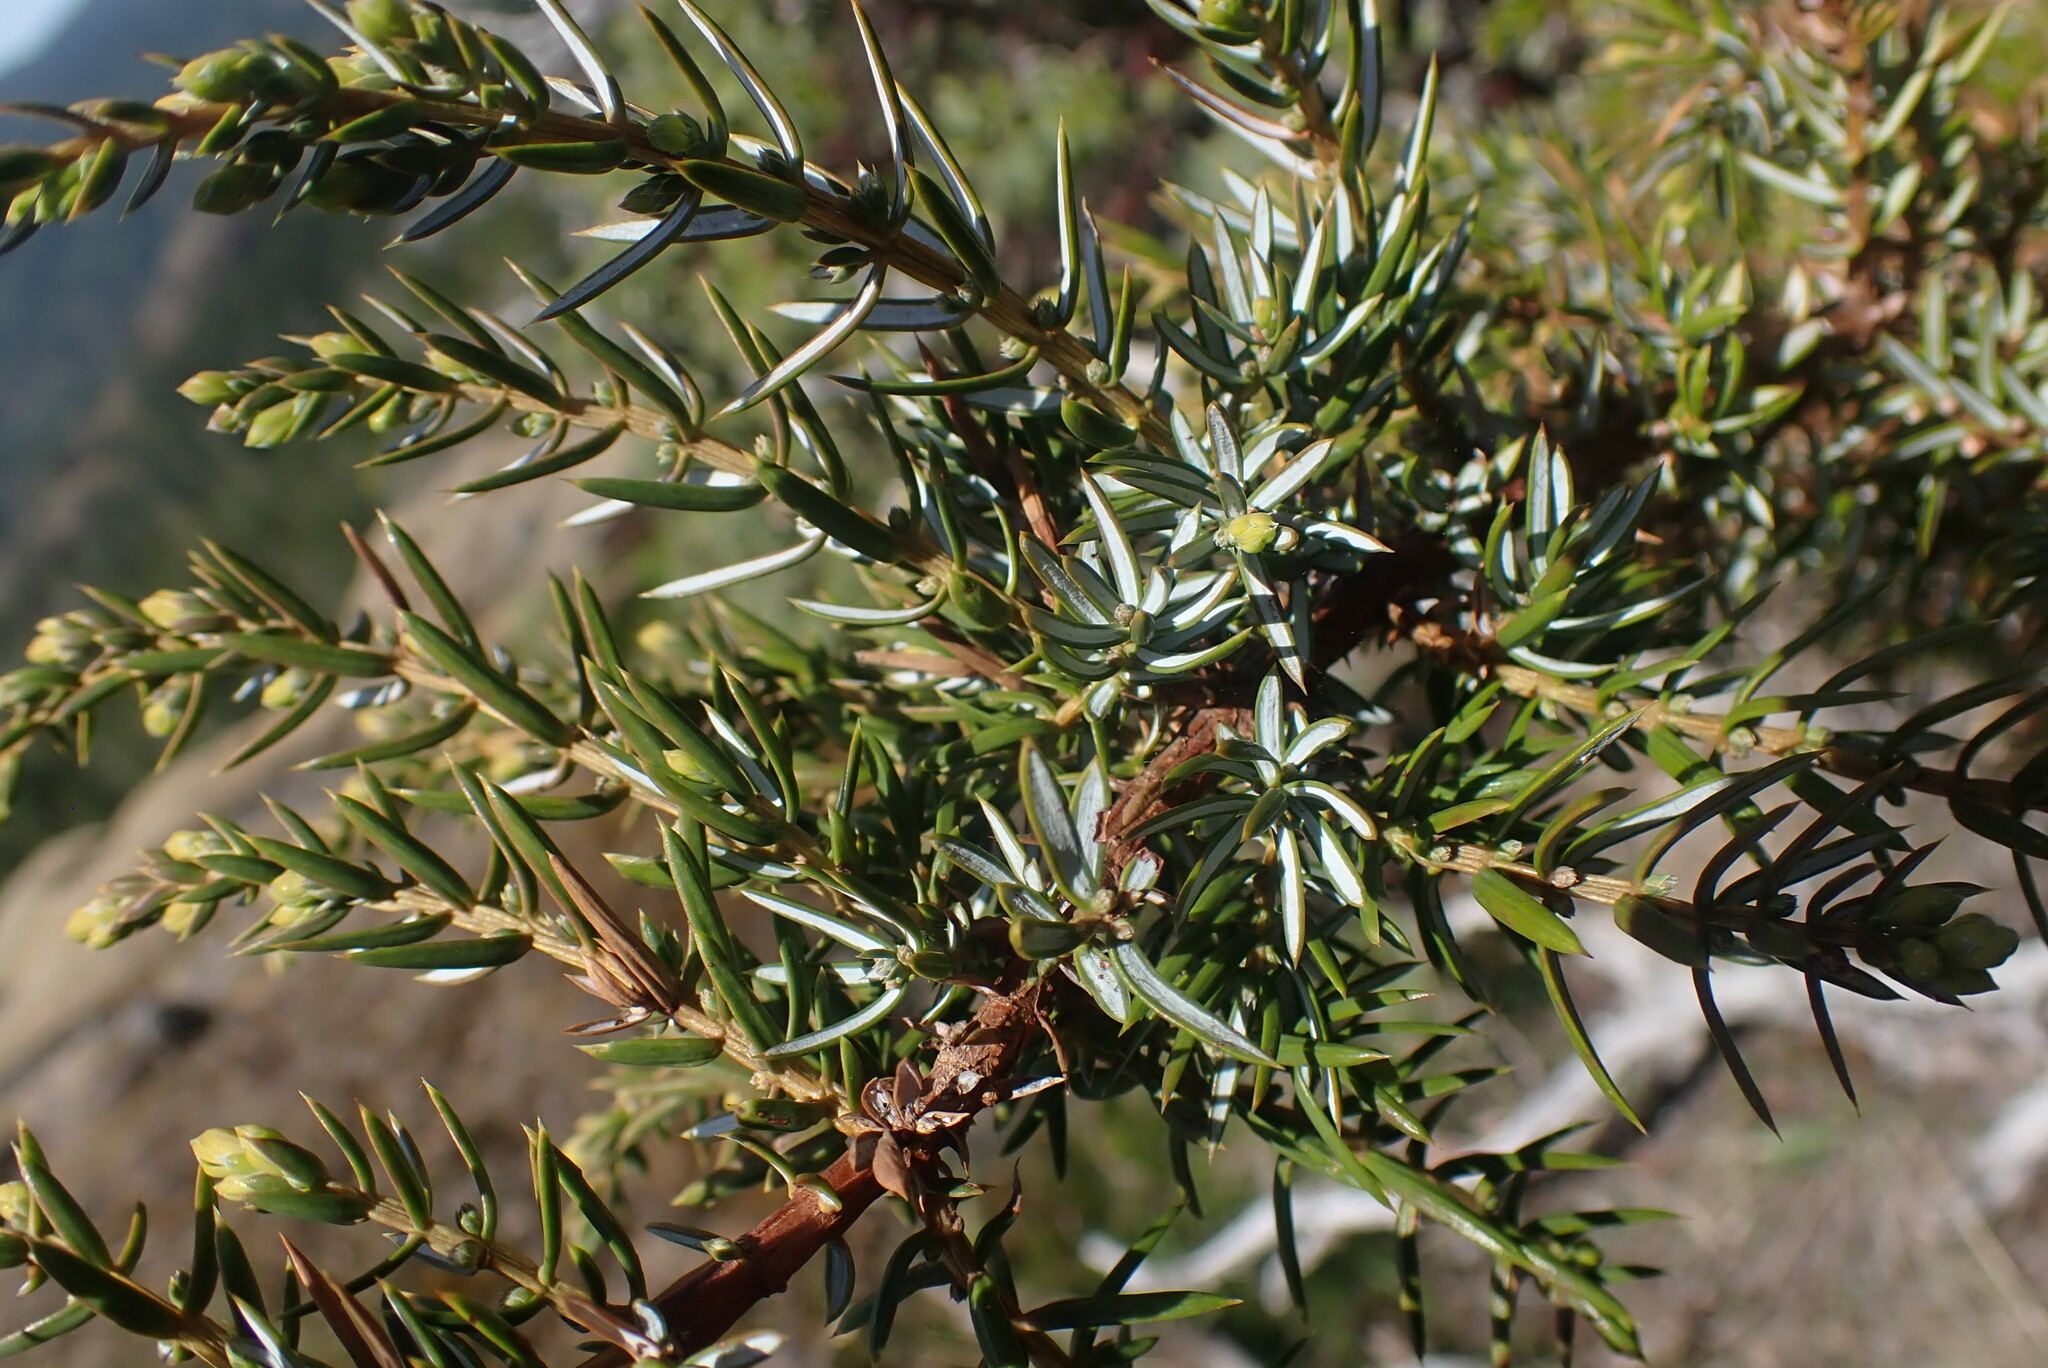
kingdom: Plantae
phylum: Tracheophyta
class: Pinopsida
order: Pinales
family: Cupressaceae
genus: Juniperus
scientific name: Juniperus communis
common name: Common juniper
